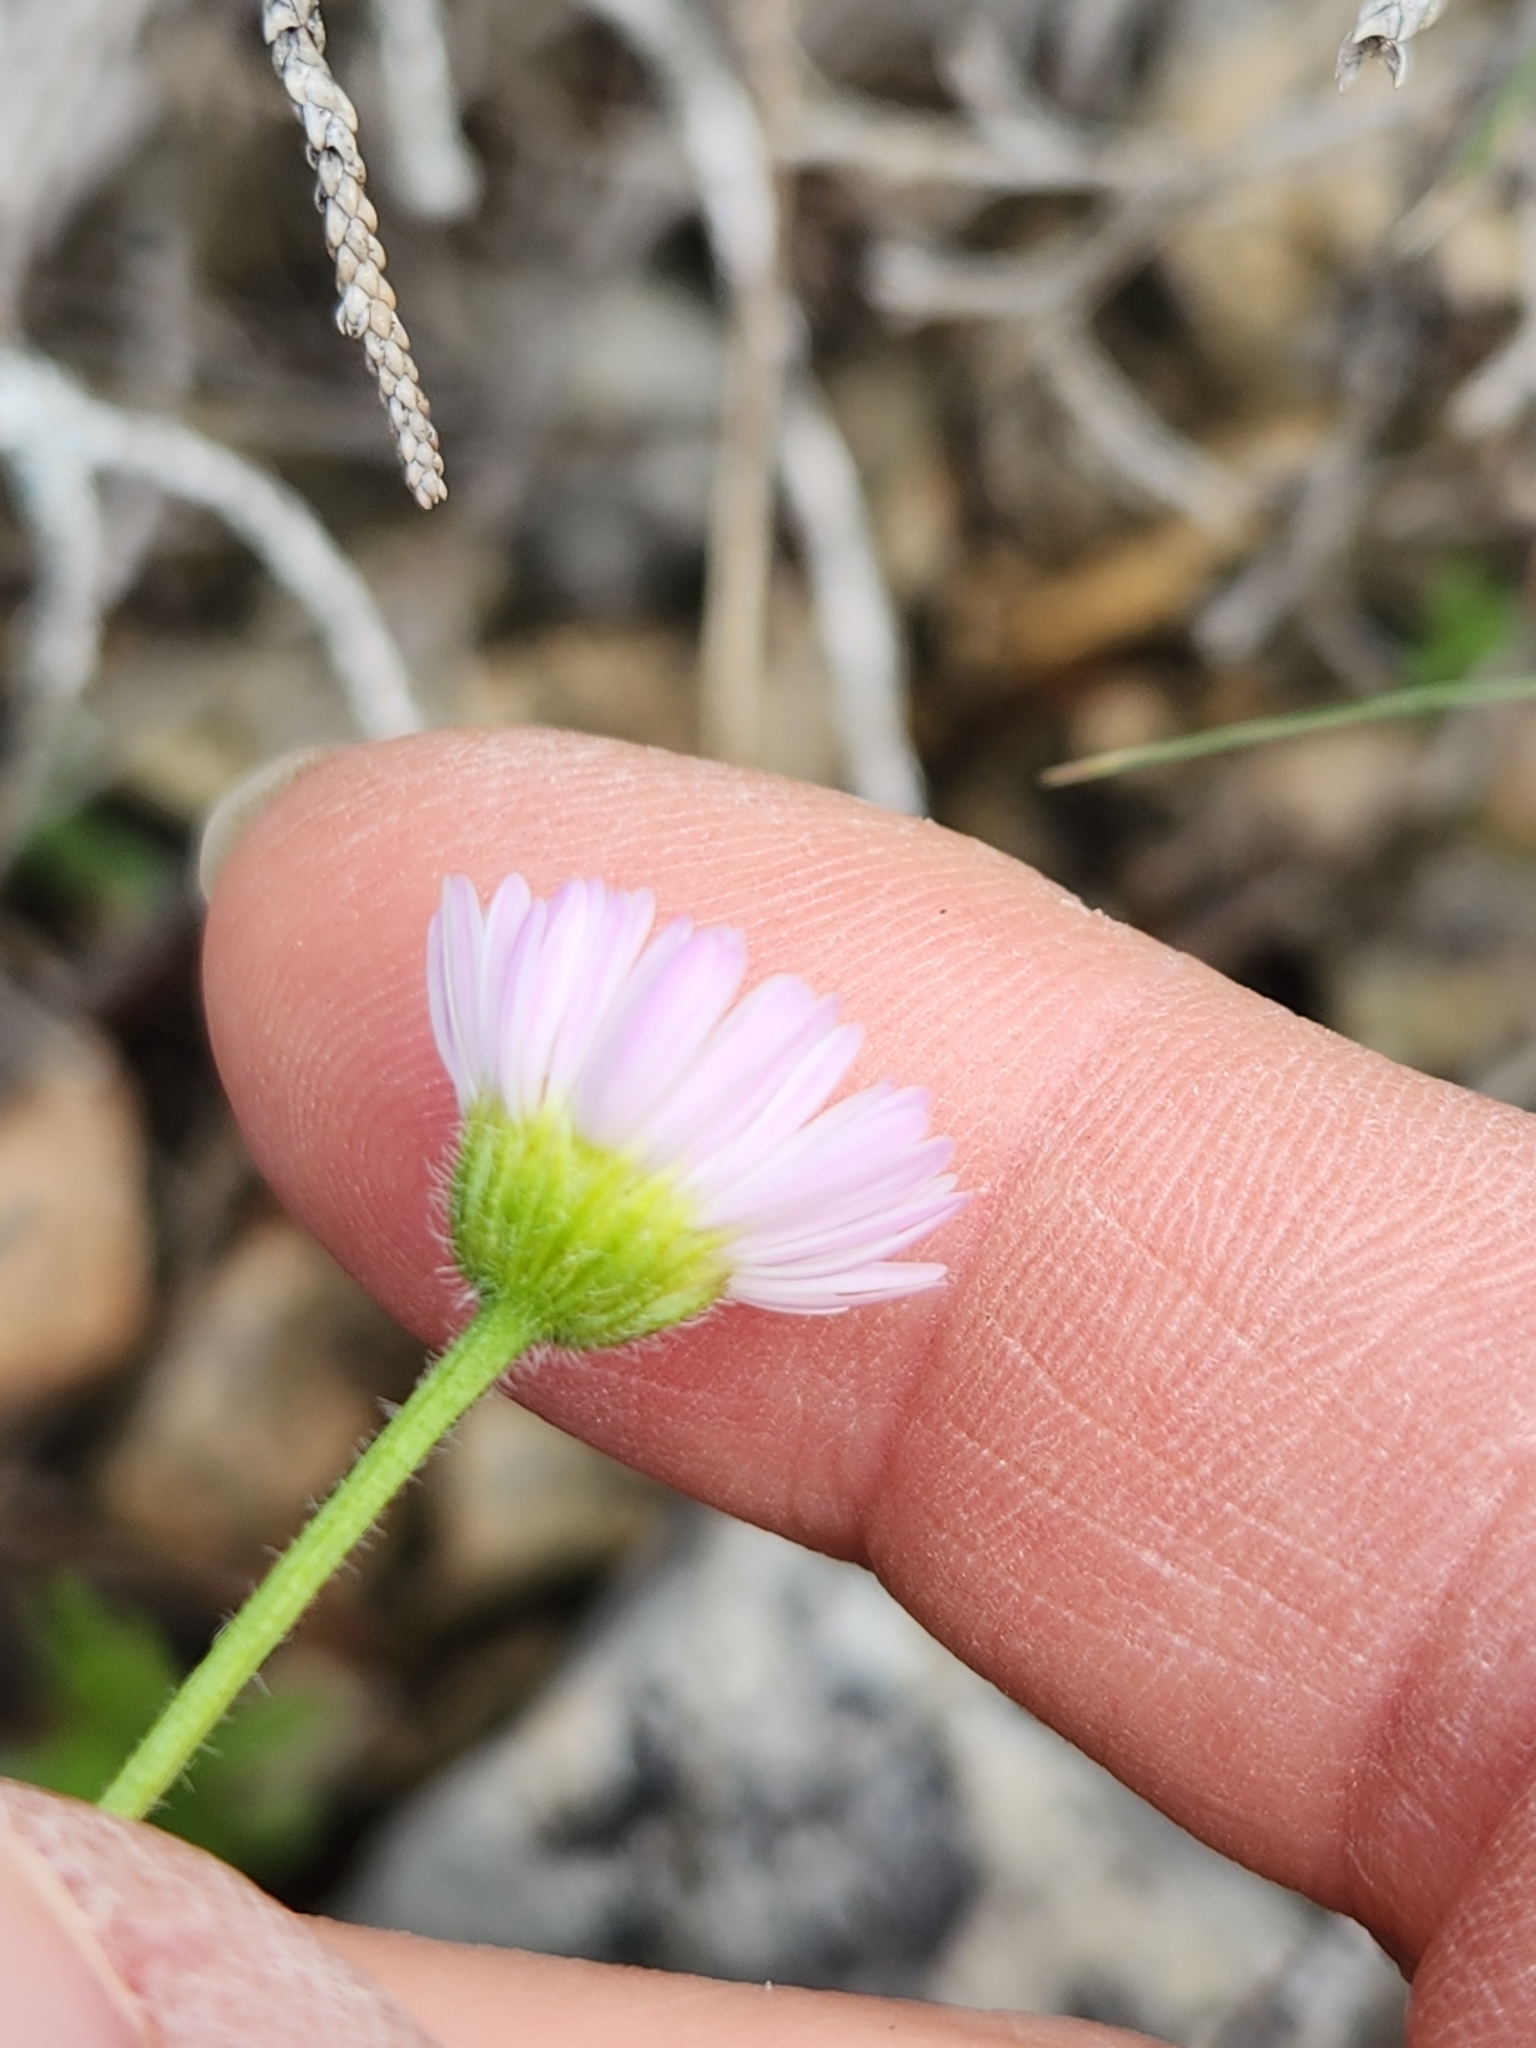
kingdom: Plantae
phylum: Tracheophyta
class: Magnoliopsida
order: Asterales
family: Asteraceae
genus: Erigeron
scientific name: Erigeron modestus
